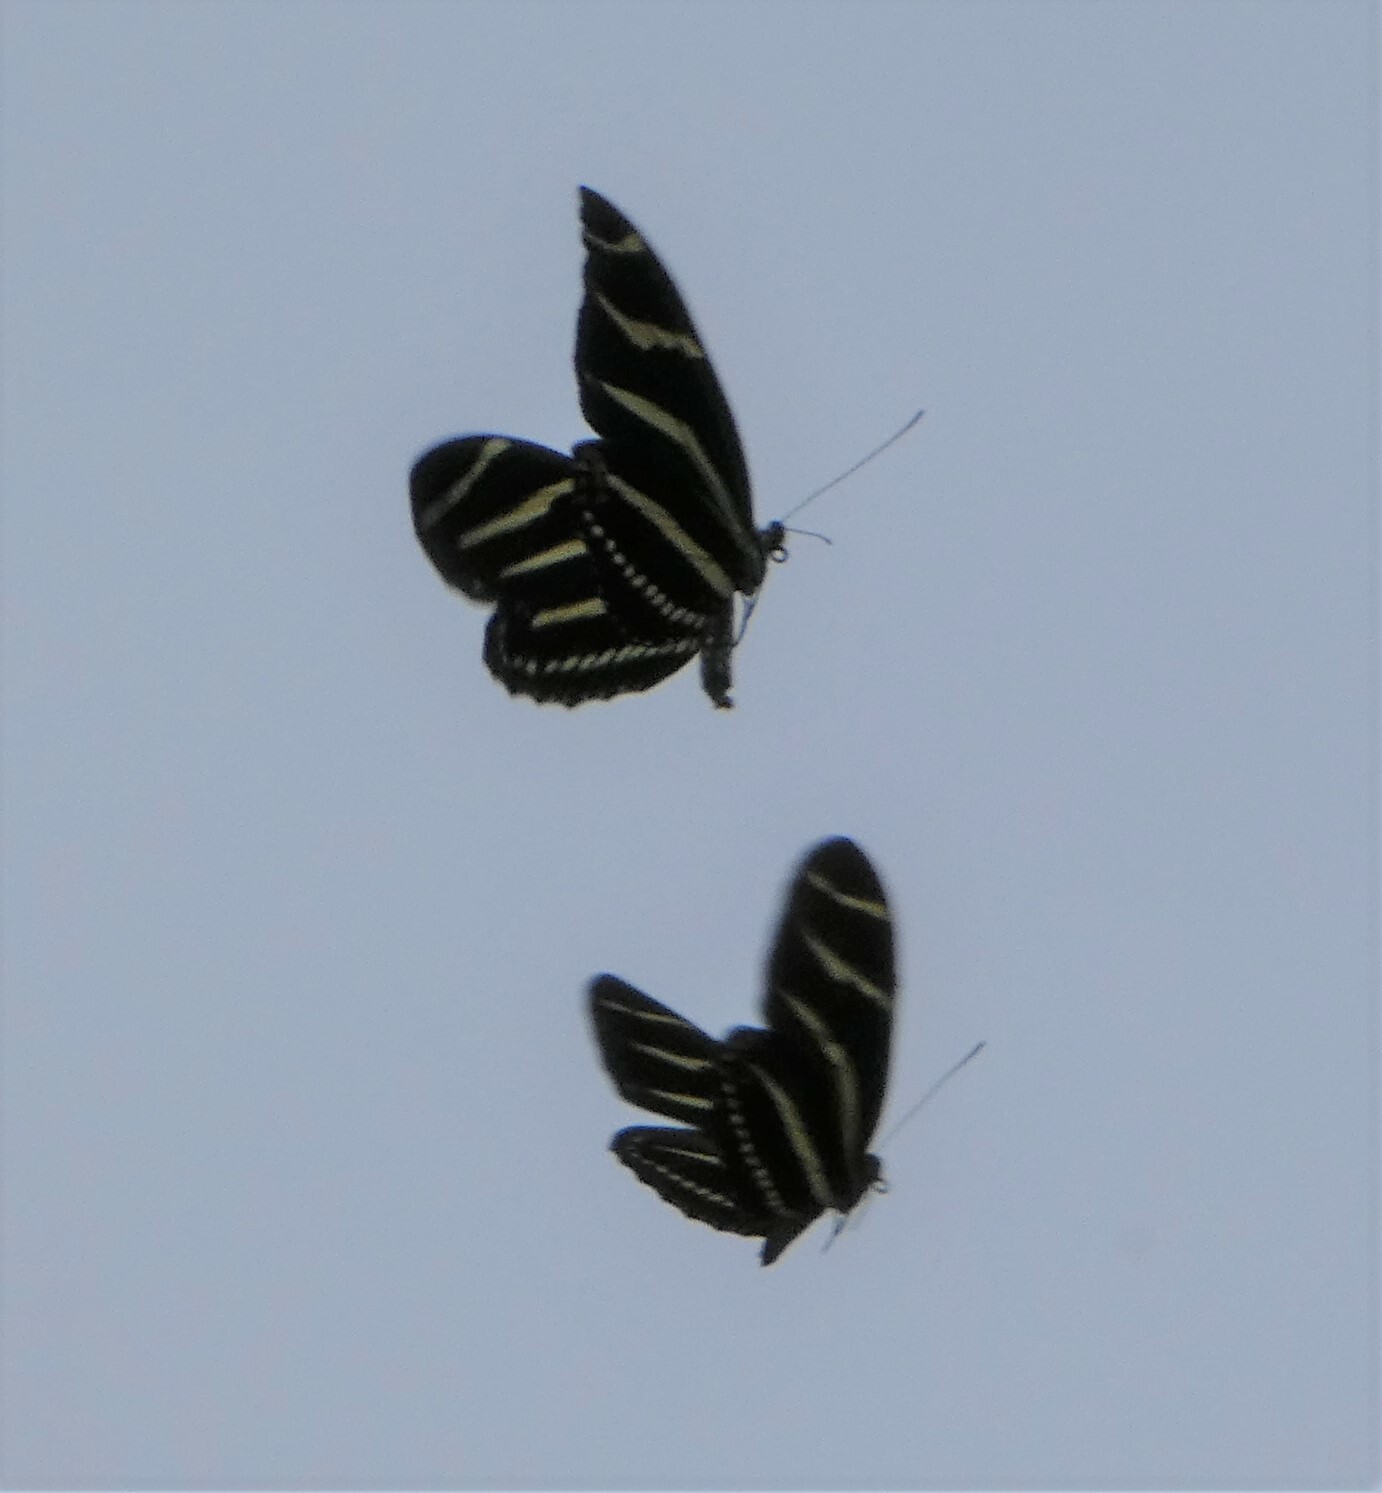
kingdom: Animalia
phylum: Arthropoda
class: Insecta
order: Lepidoptera
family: Nymphalidae
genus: Heliconius
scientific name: Heliconius charithonia
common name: Zebra long wing
